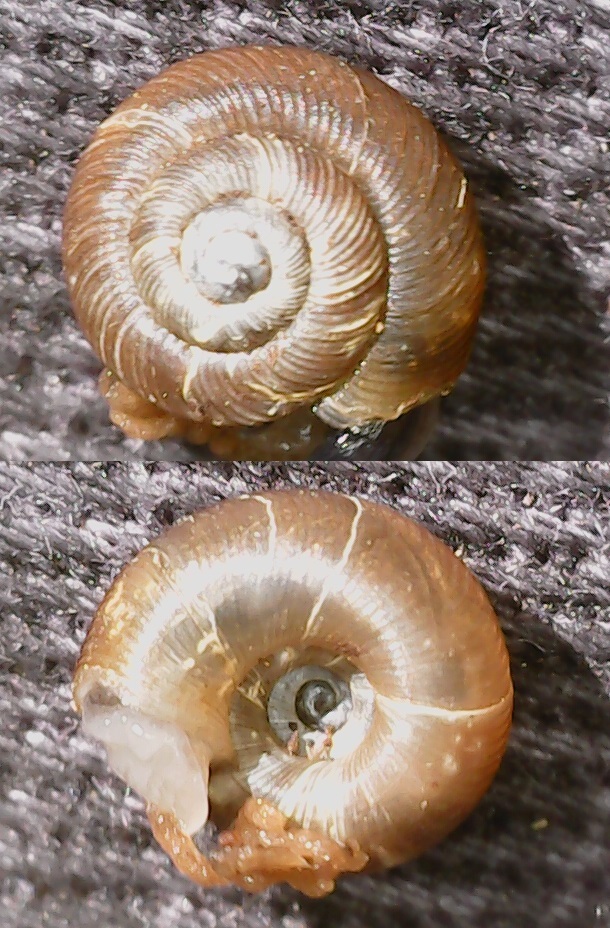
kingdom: Animalia
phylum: Mollusca
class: Gastropoda
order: Stylommatophora
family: Discidae
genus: Discus
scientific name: Discus ruderatus
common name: Brown disc snail
